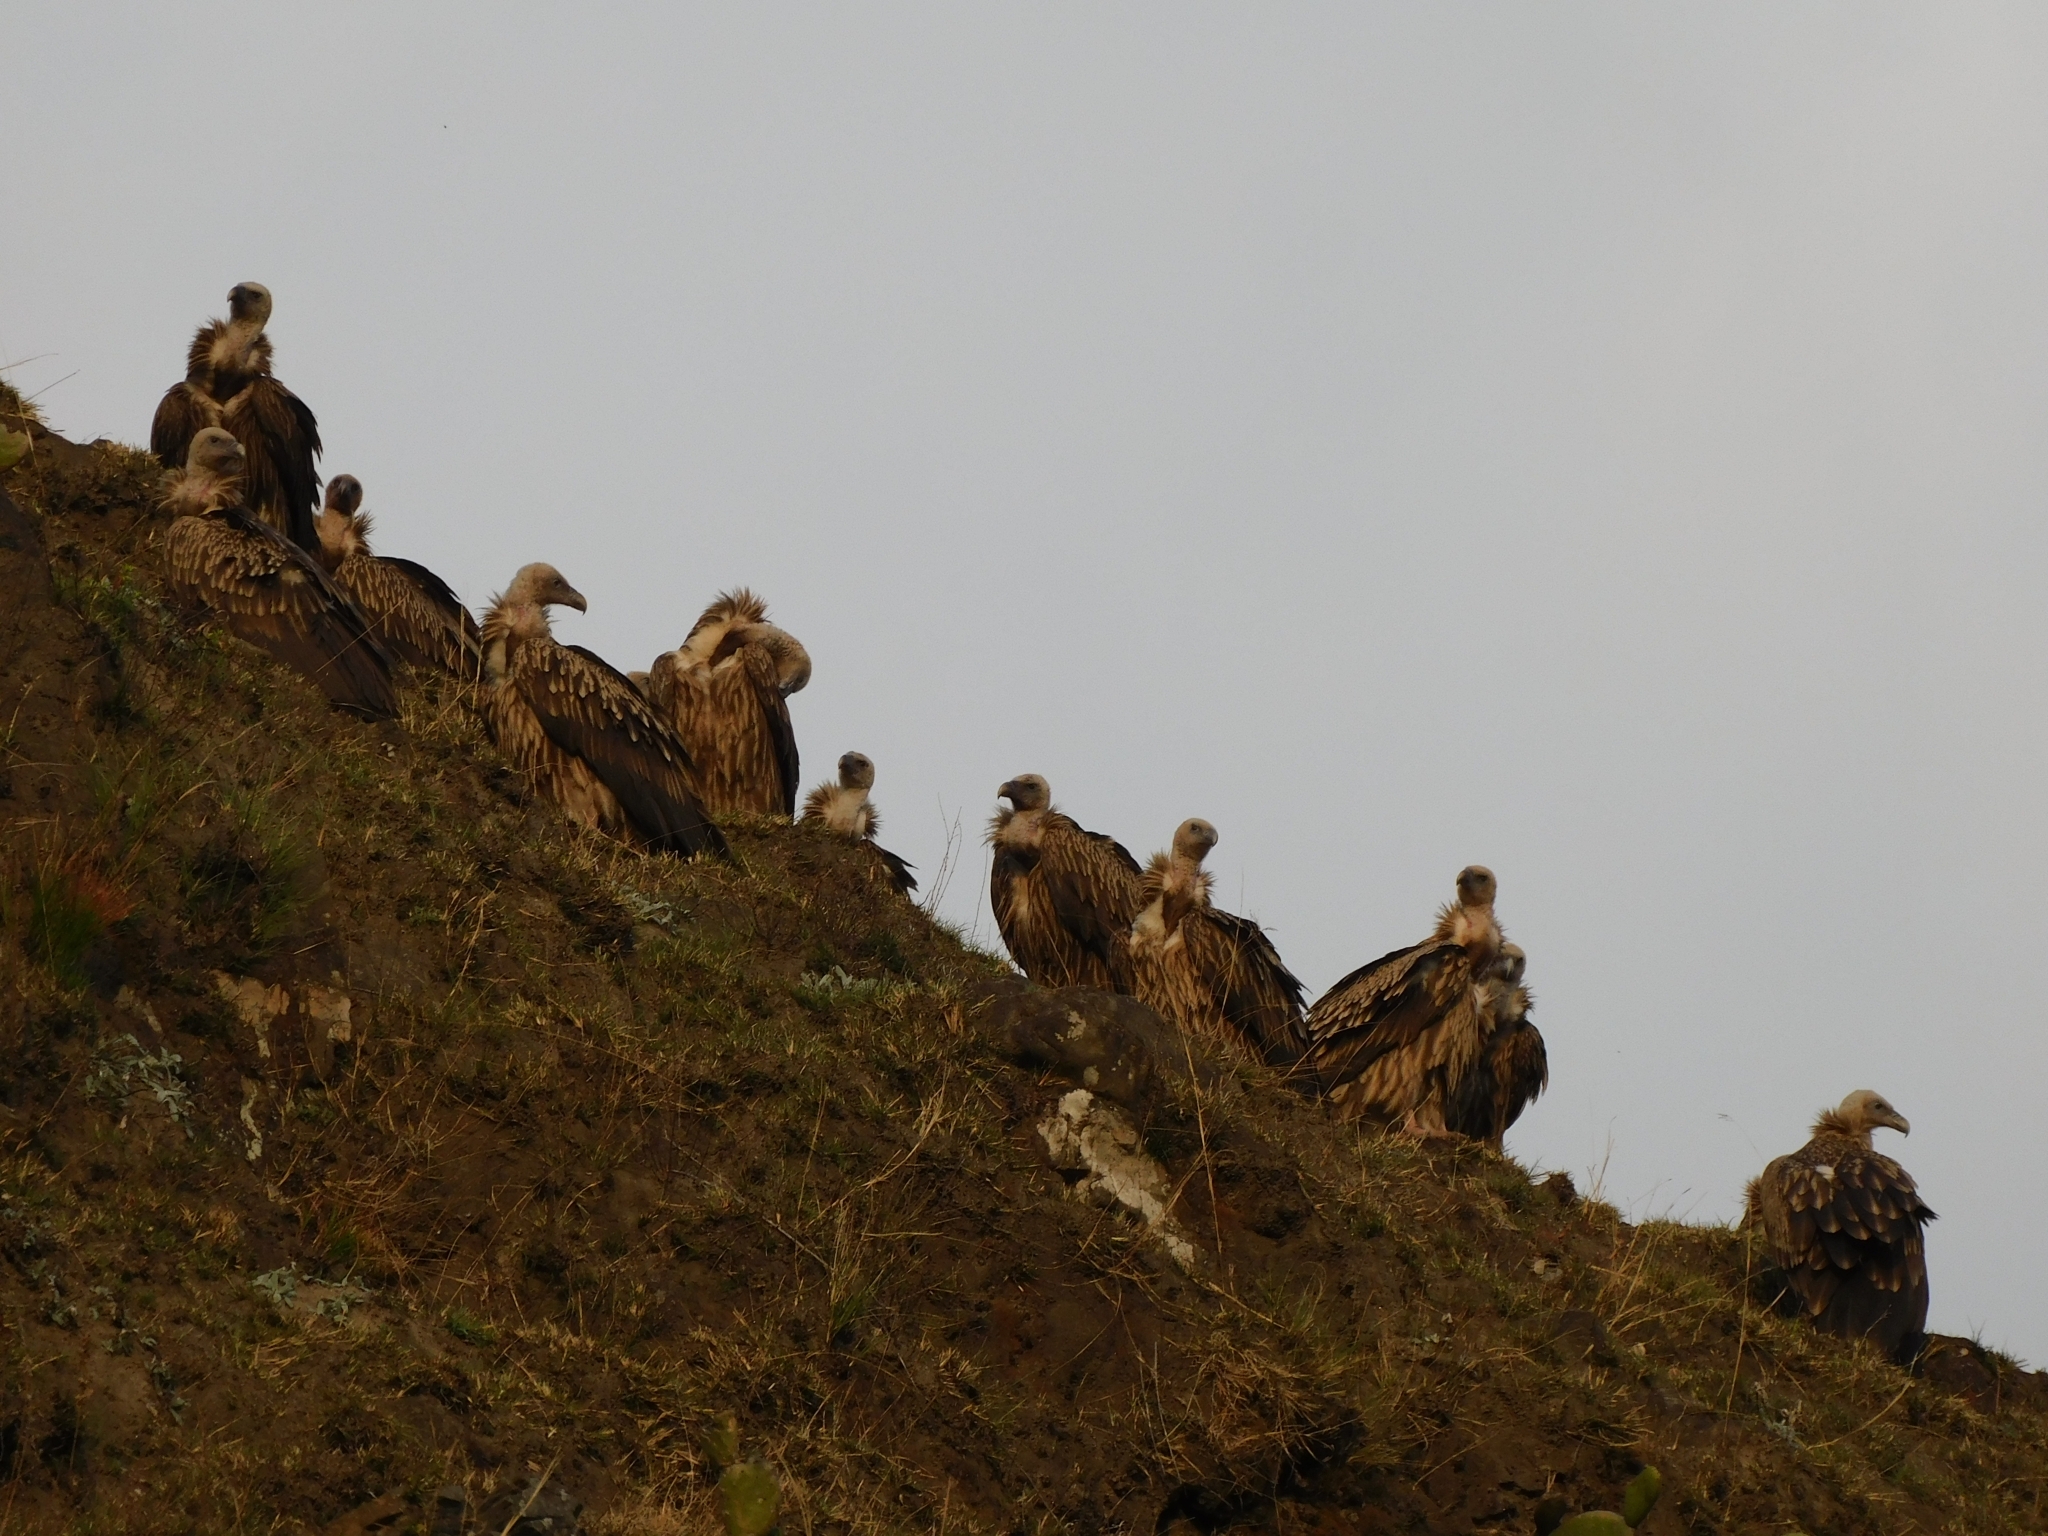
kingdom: Animalia
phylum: Chordata
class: Aves
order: Accipitriformes
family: Accipitridae
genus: Gyps
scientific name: Gyps himalayensis
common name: Himalayan griffon
